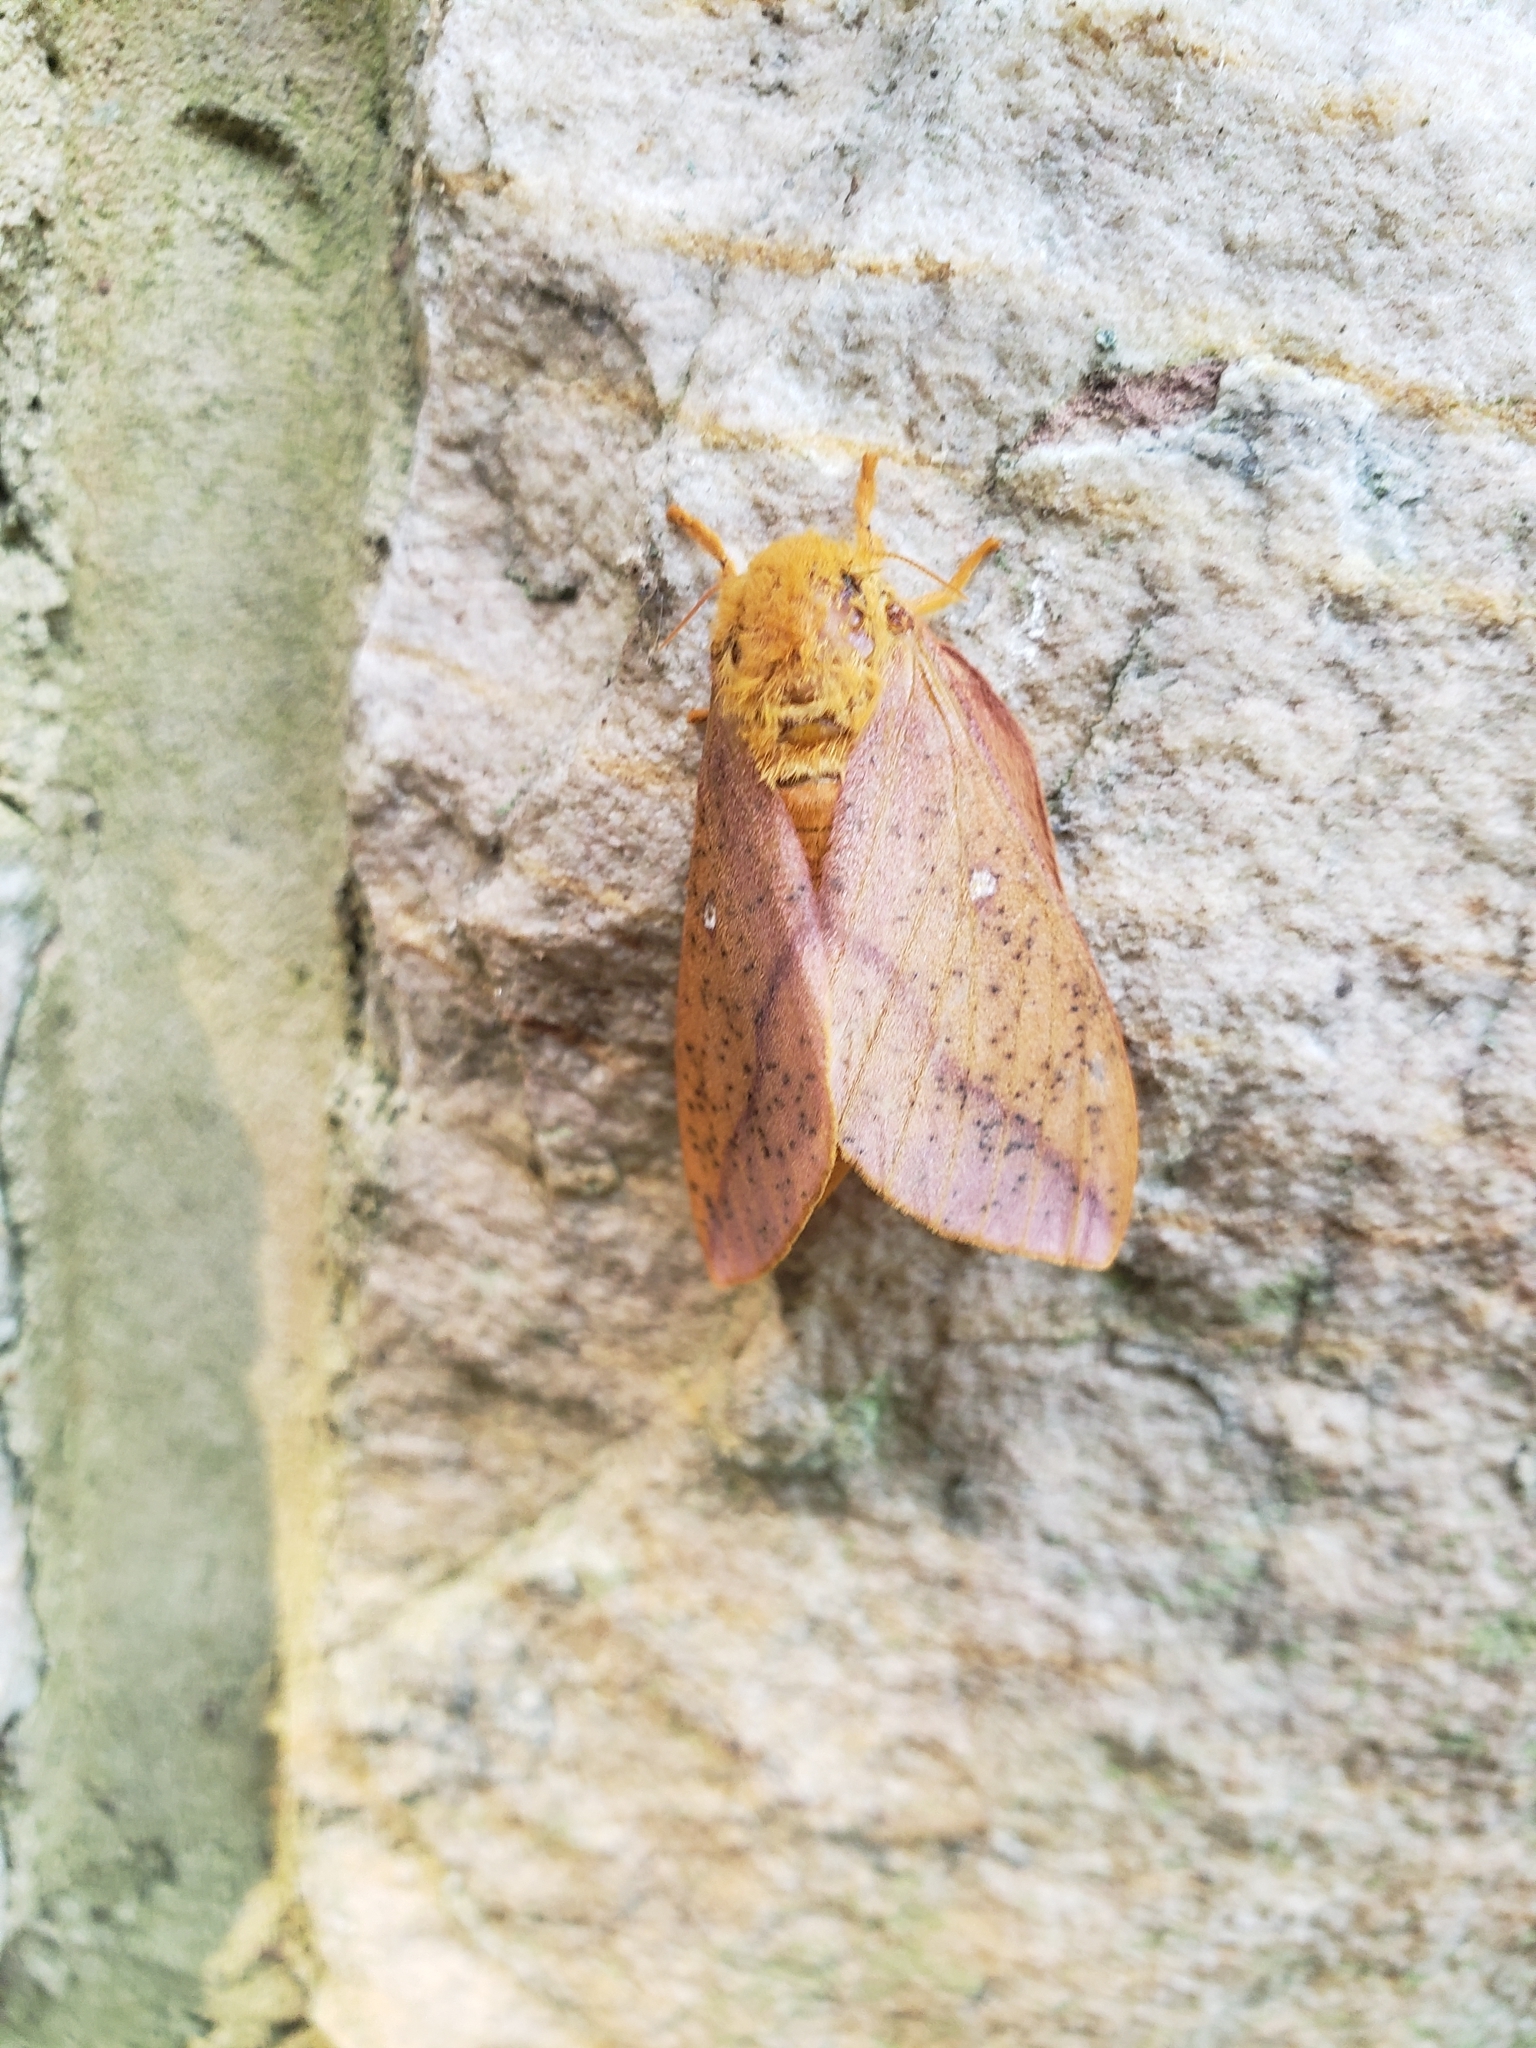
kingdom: Animalia
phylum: Arthropoda
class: Insecta
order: Lepidoptera
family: Saturniidae
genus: Anisota
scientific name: Anisota senatoria
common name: Orange-striped oakworm moth
